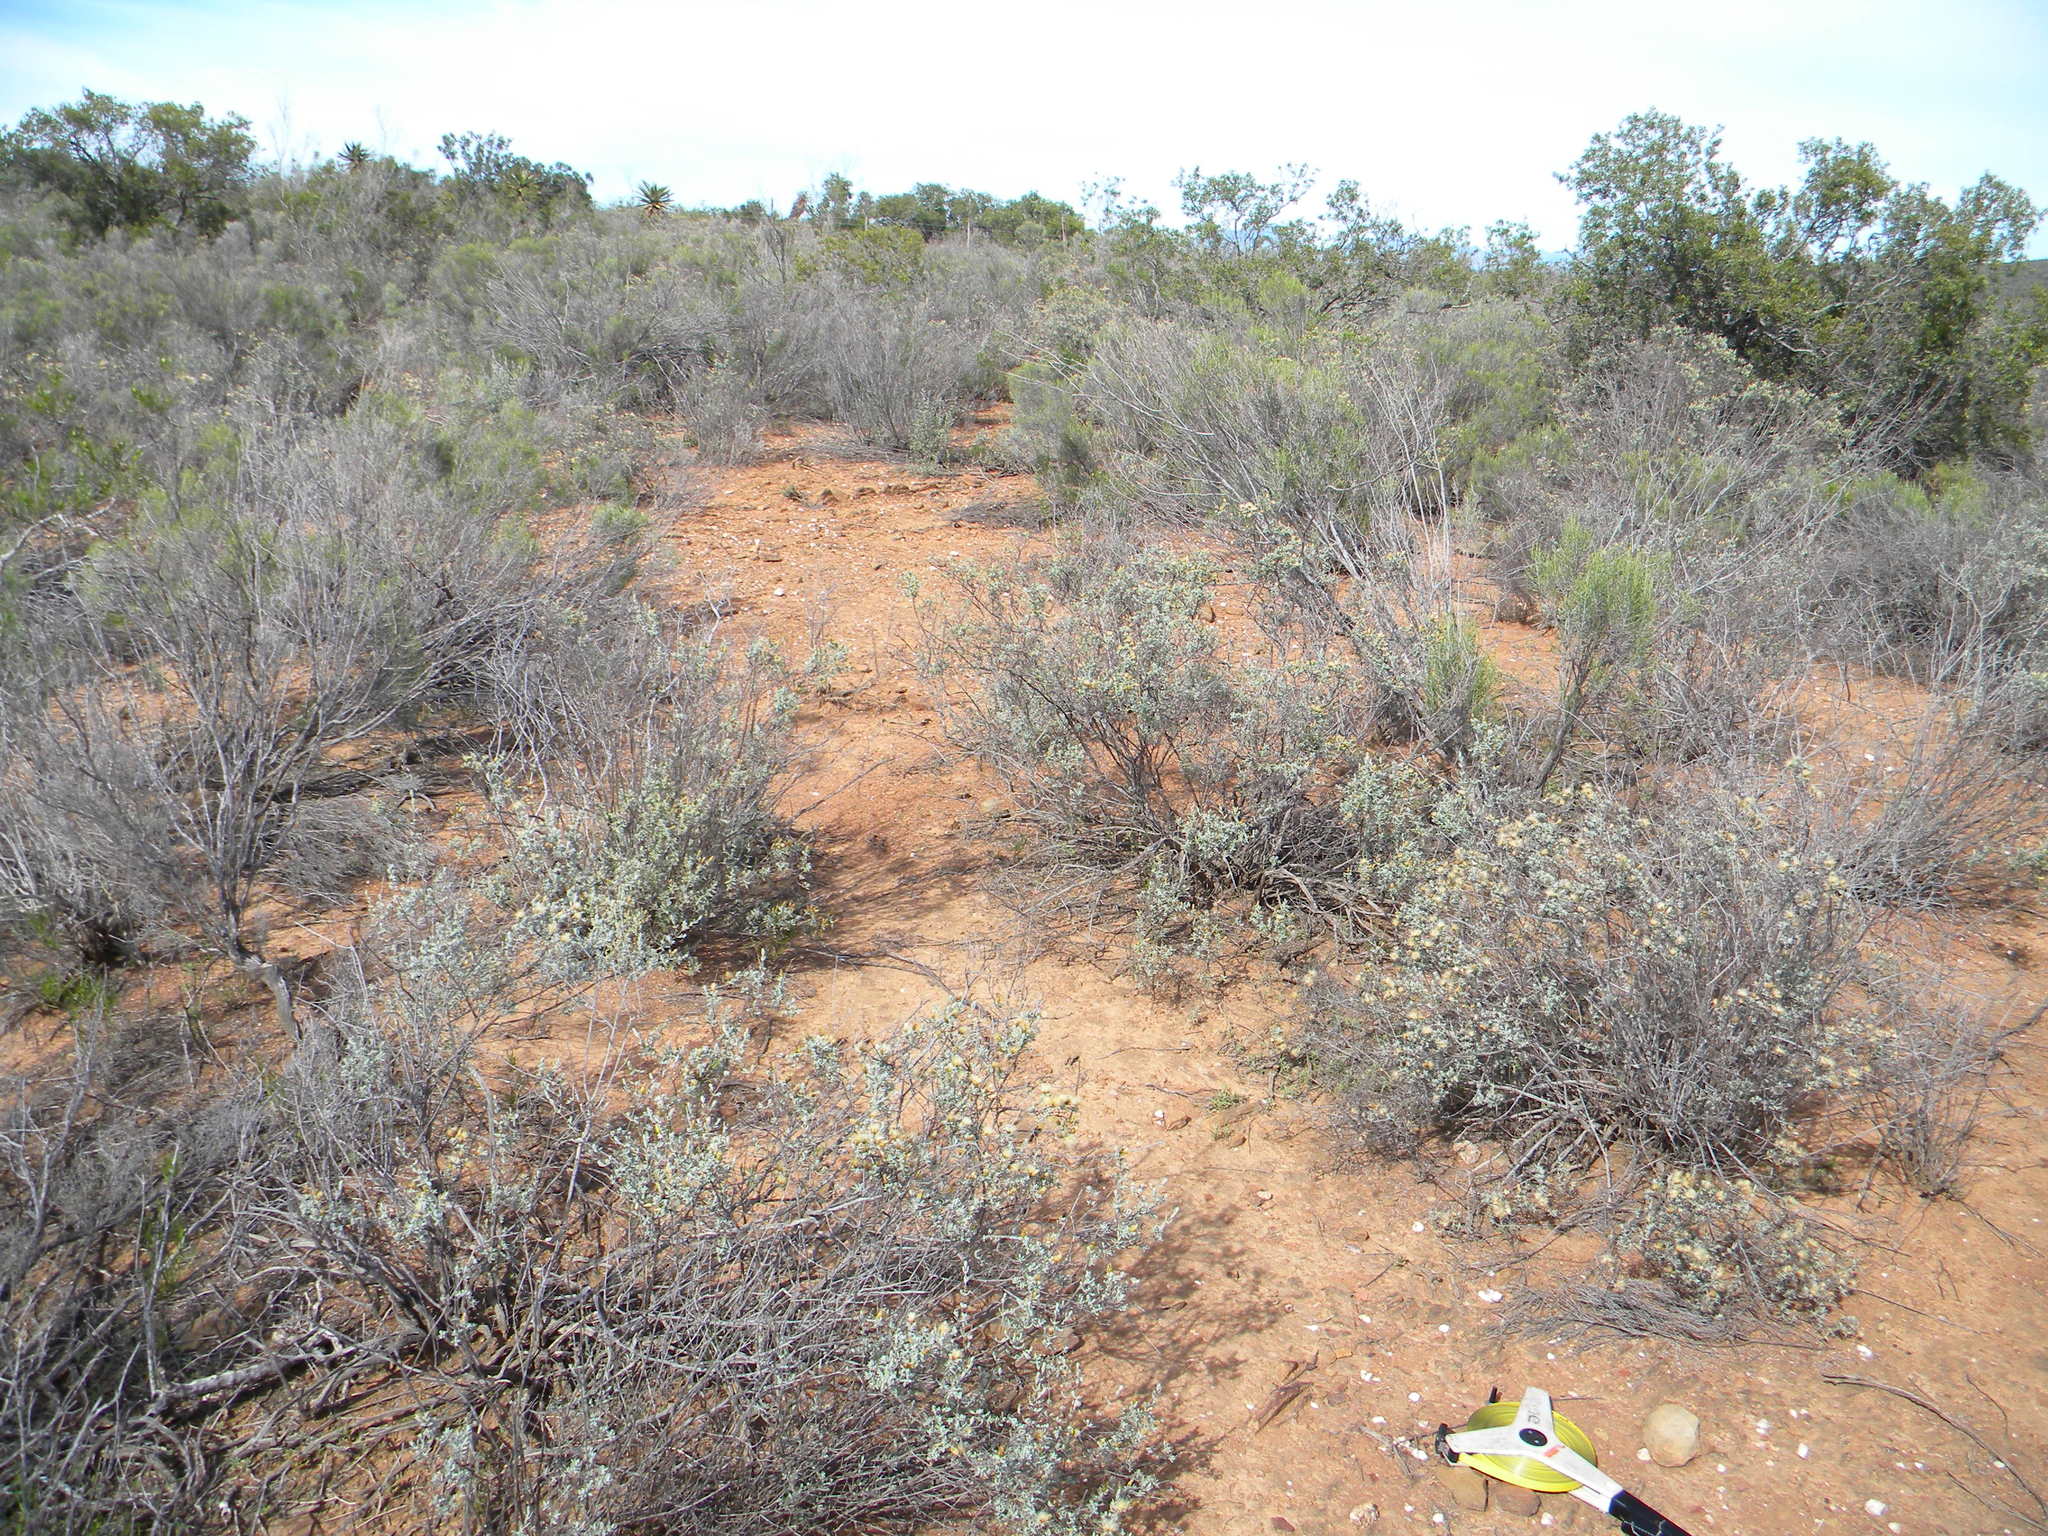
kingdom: Plantae
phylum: Tracheophyta
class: Magnoliopsida
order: Asterales
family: Asteraceae
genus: Pteronia
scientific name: Pteronia incana
